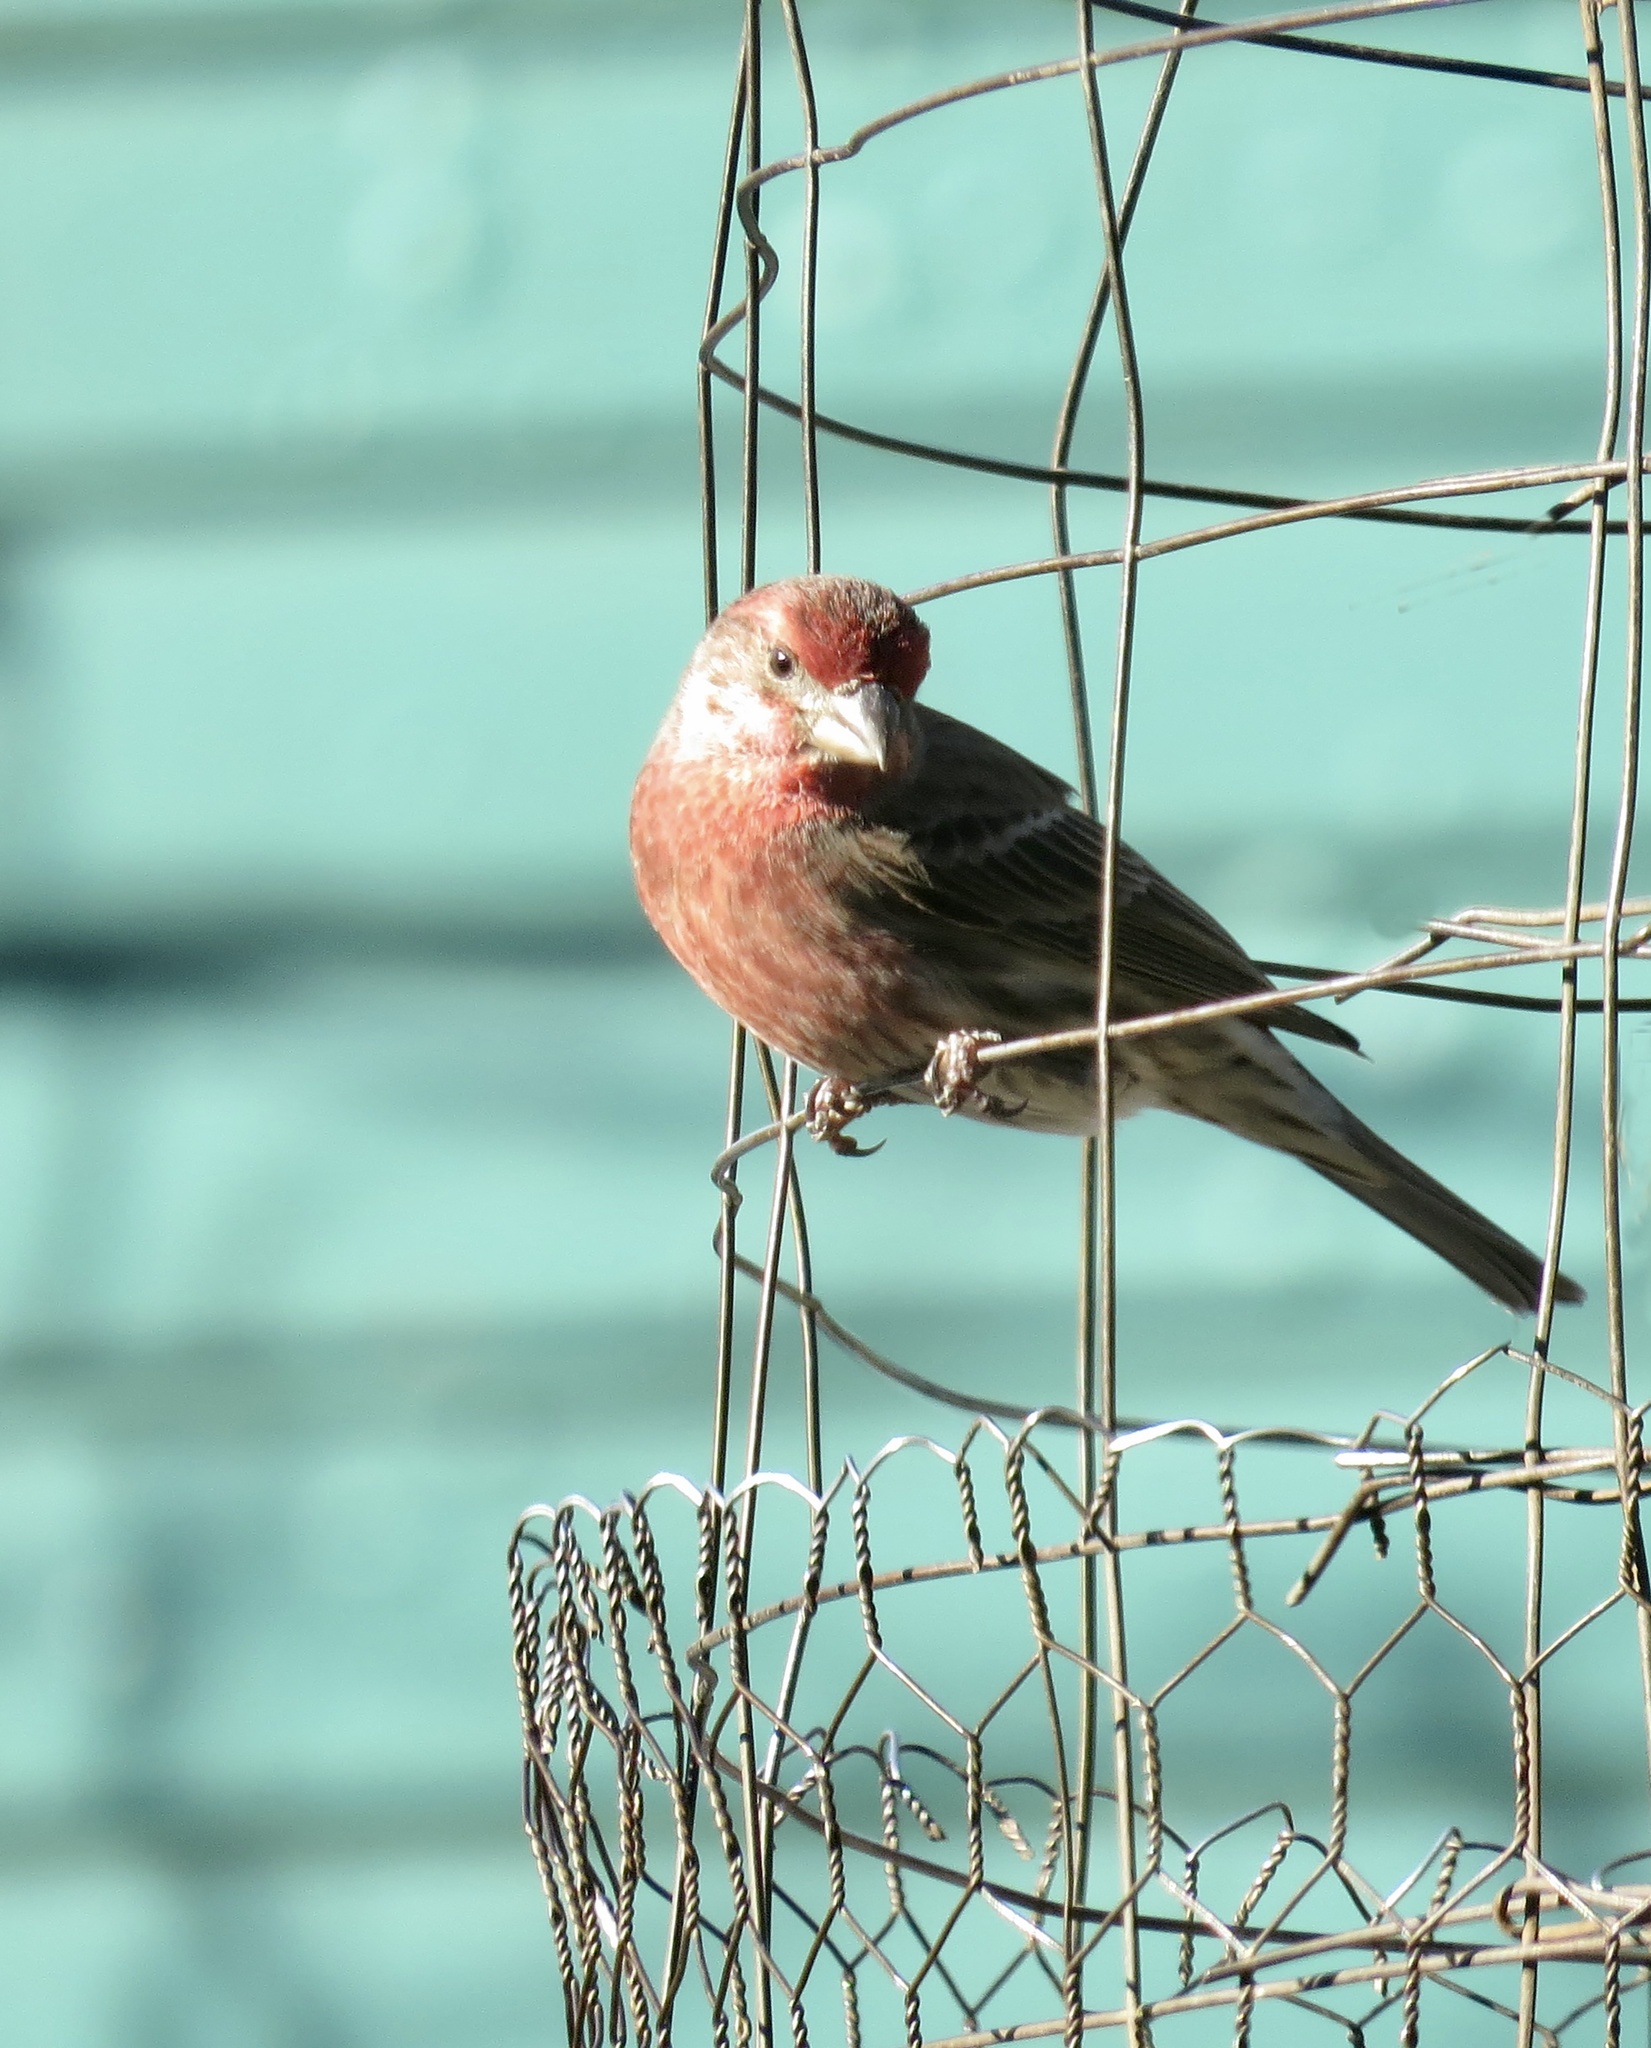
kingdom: Animalia
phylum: Chordata
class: Aves
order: Passeriformes
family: Fringillidae
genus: Haemorhous
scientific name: Haemorhous mexicanus
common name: House finch
